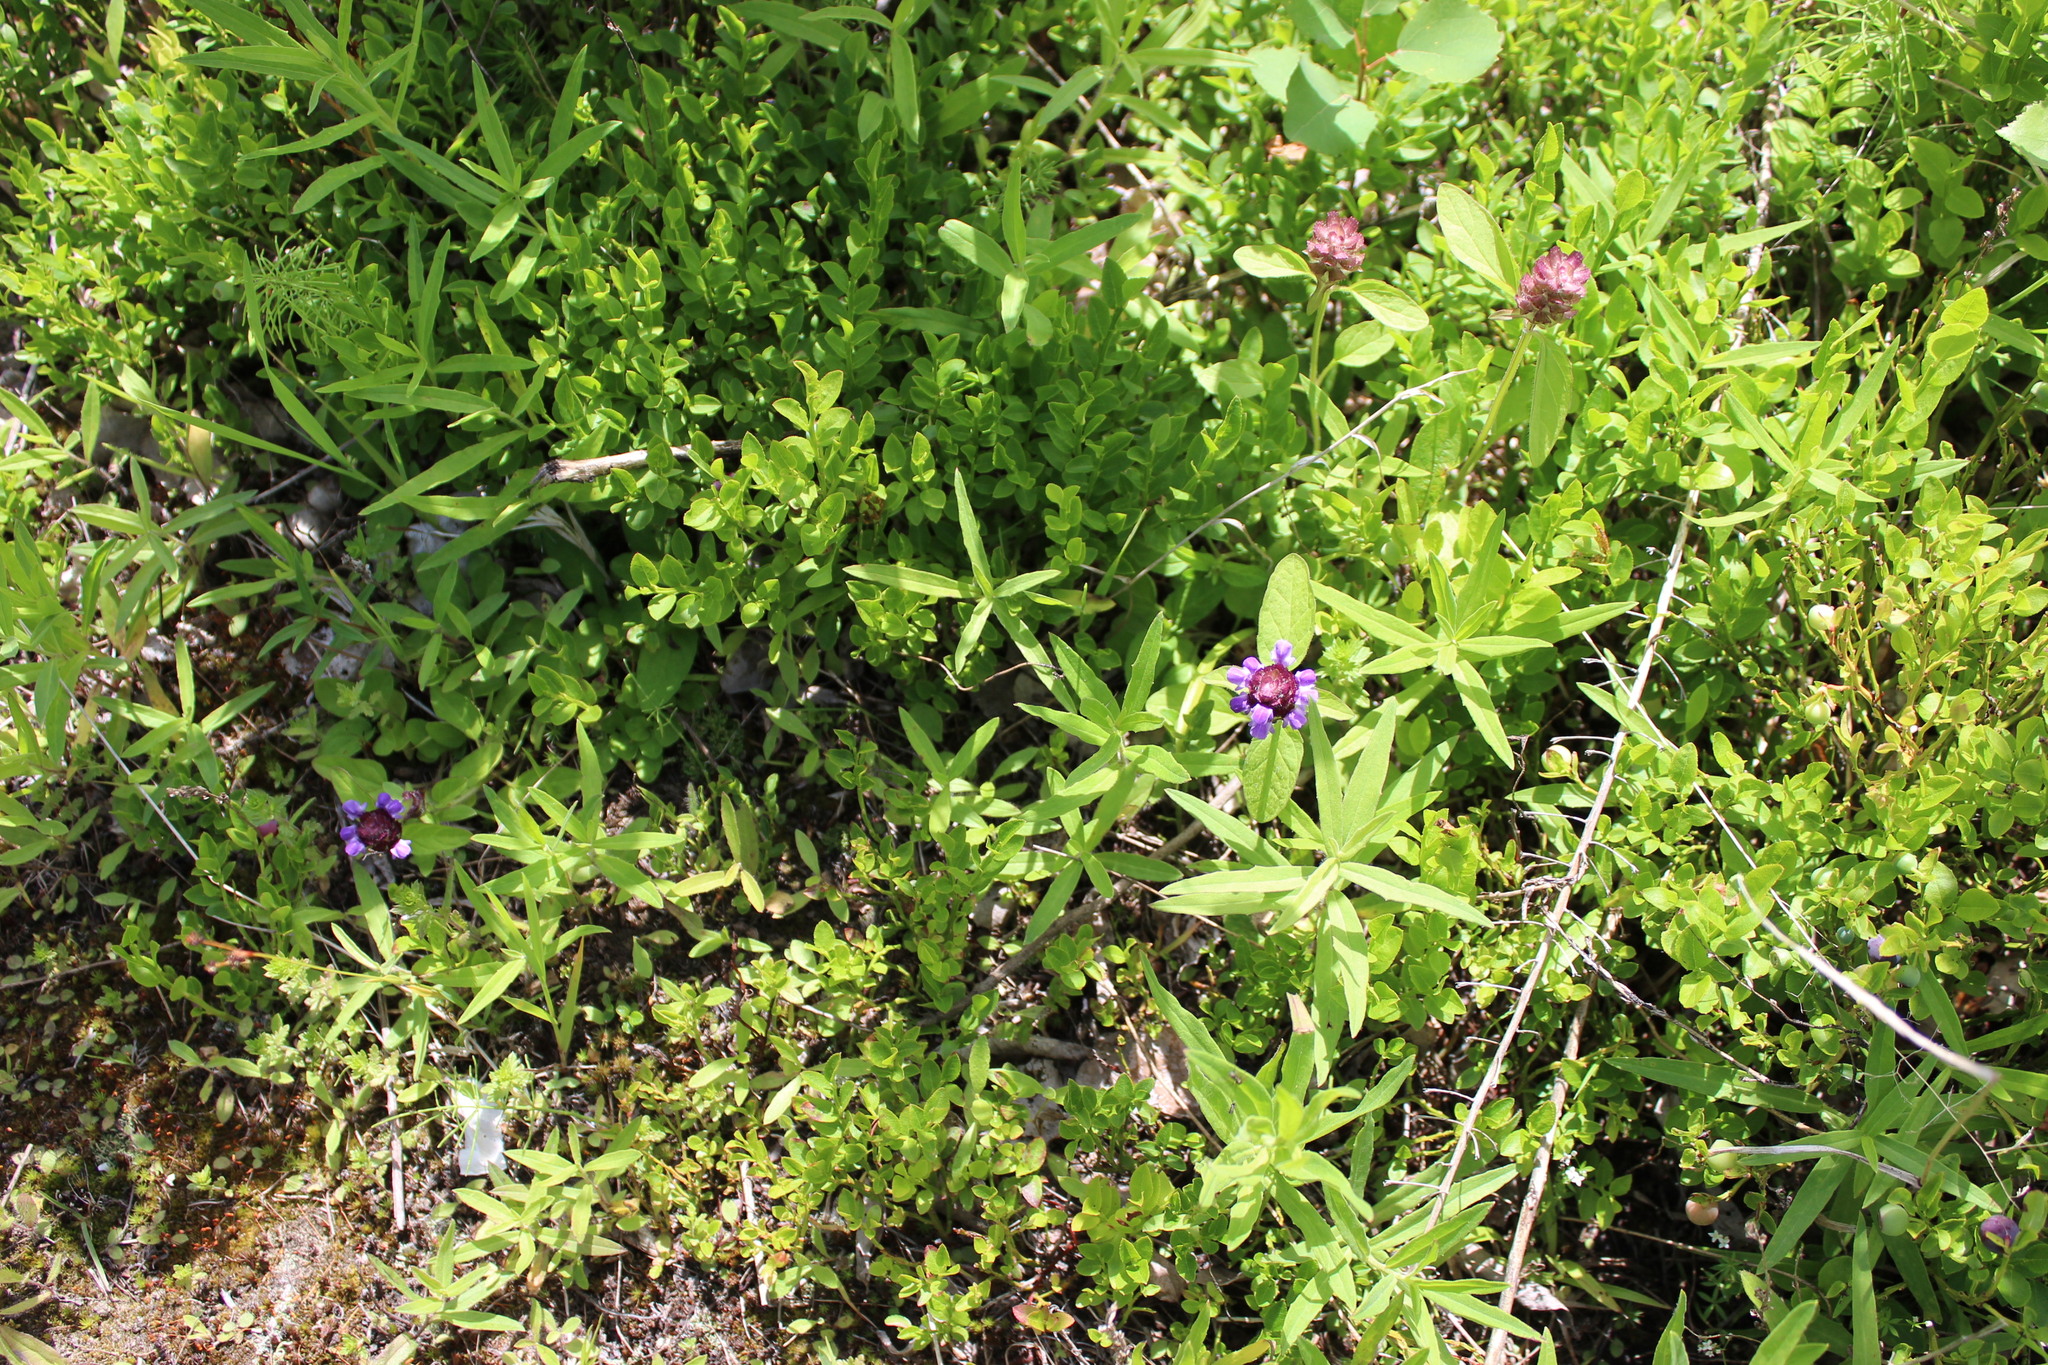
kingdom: Plantae
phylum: Tracheophyta
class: Magnoliopsida
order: Lamiales
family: Lamiaceae
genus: Prunella
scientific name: Prunella vulgaris
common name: Heal-all
